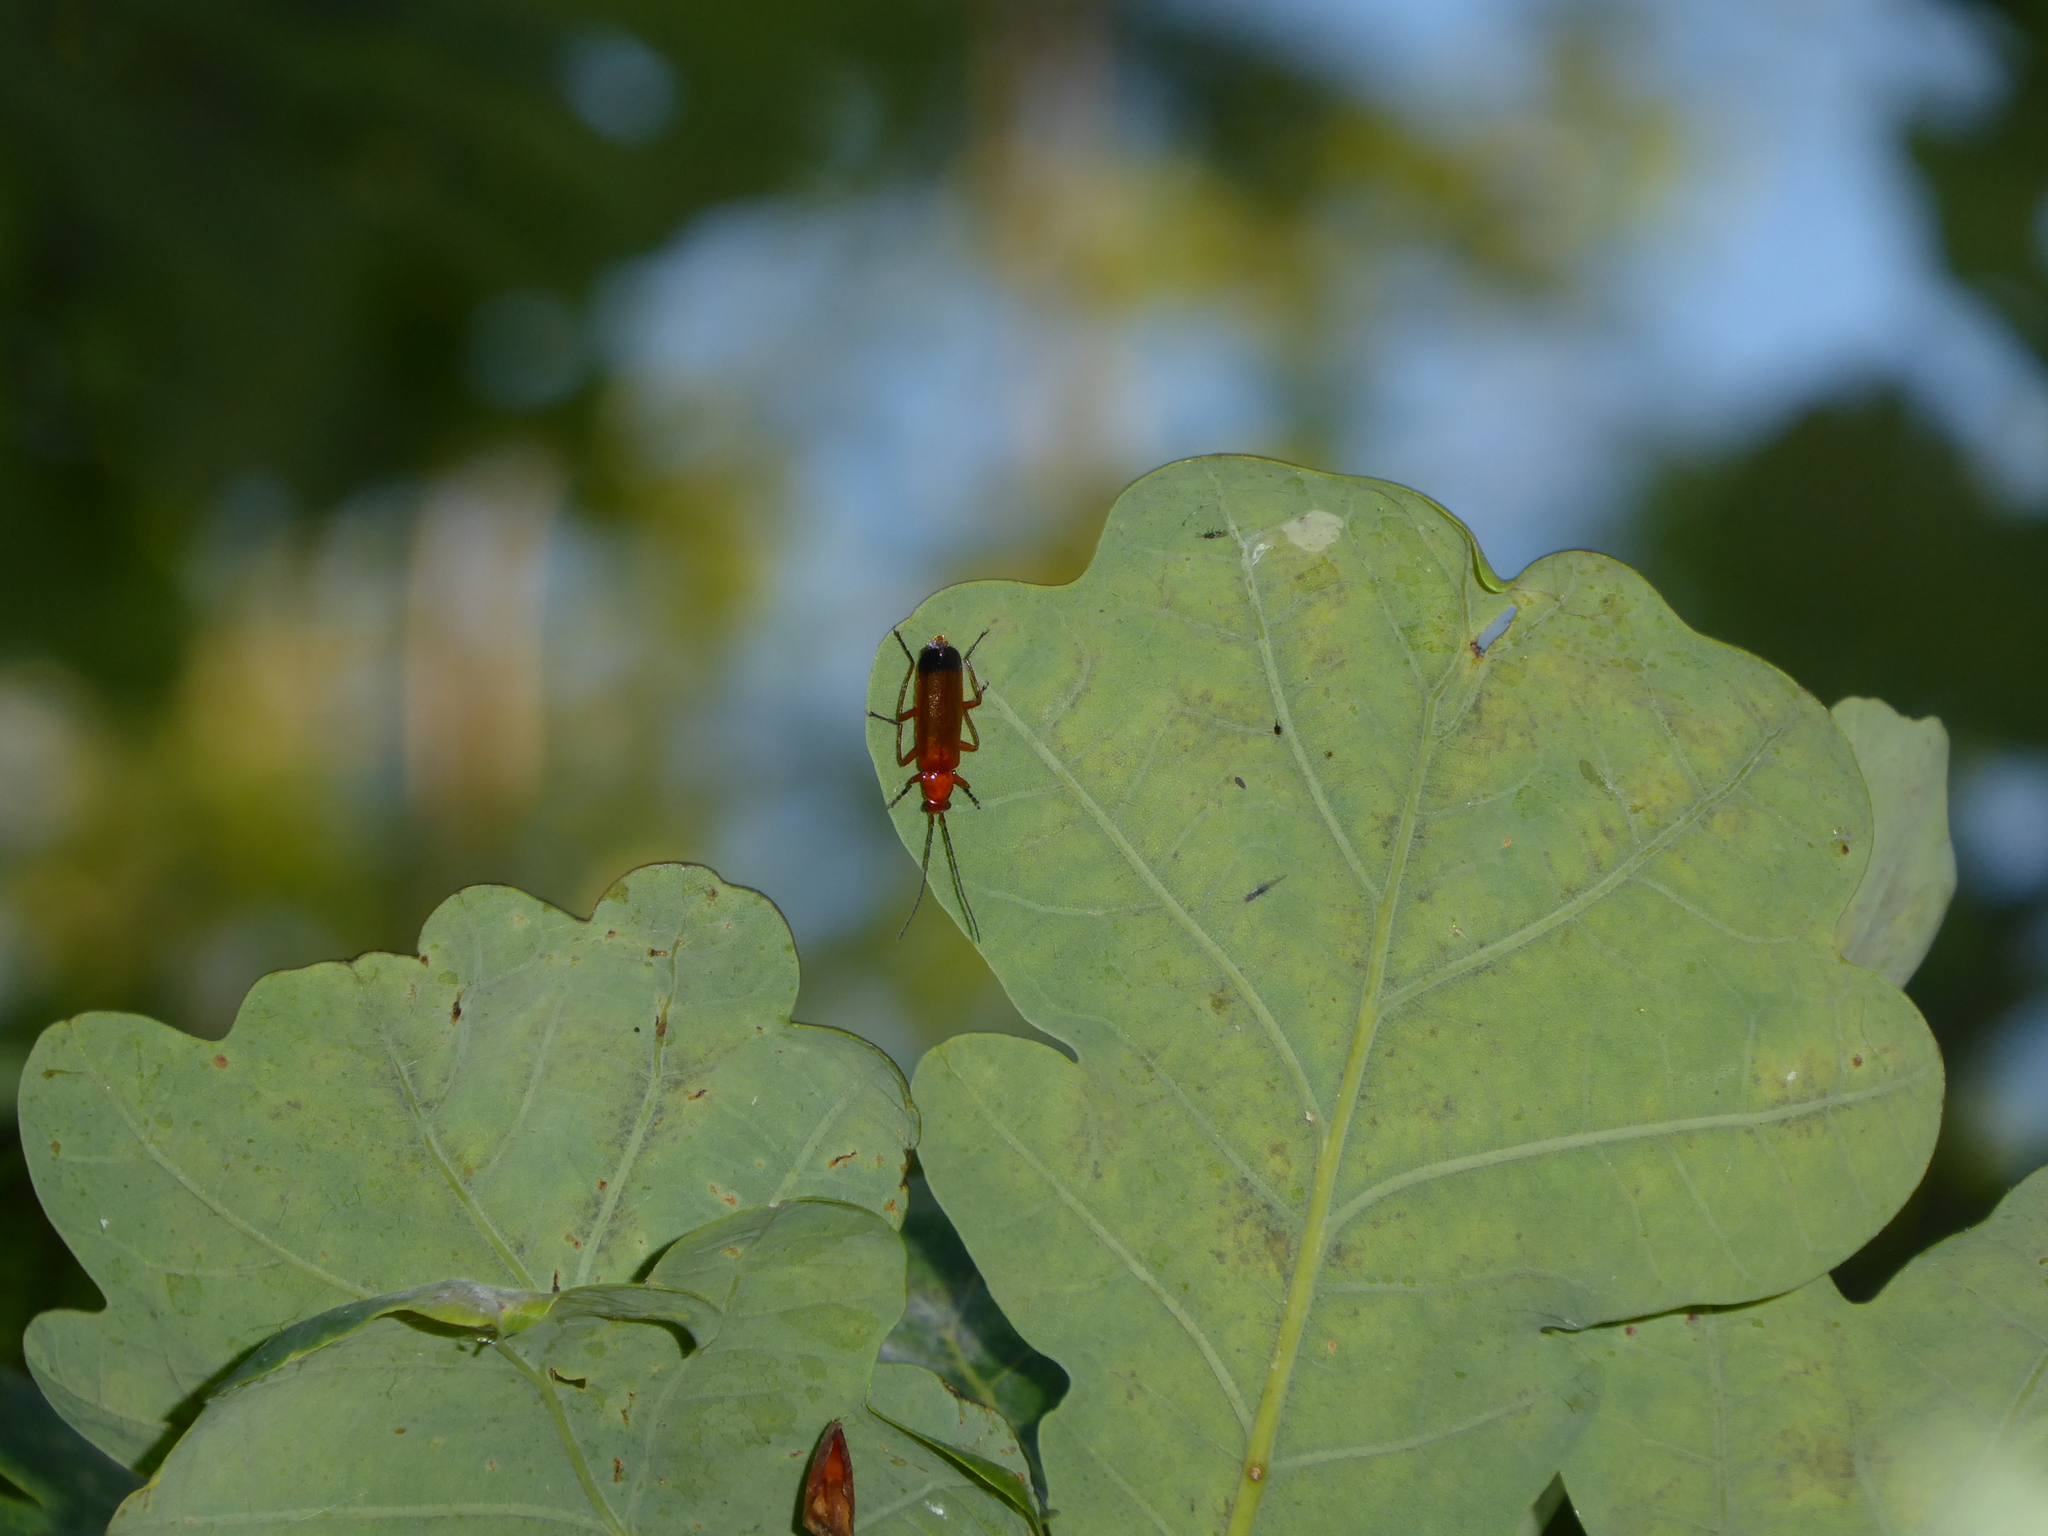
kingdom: Animalia
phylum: Arthropoda
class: Insecta
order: Coleoptera
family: Cantharidae
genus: Rhagonycha
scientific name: Rhagonycha fulva
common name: Common red soldier beetle
